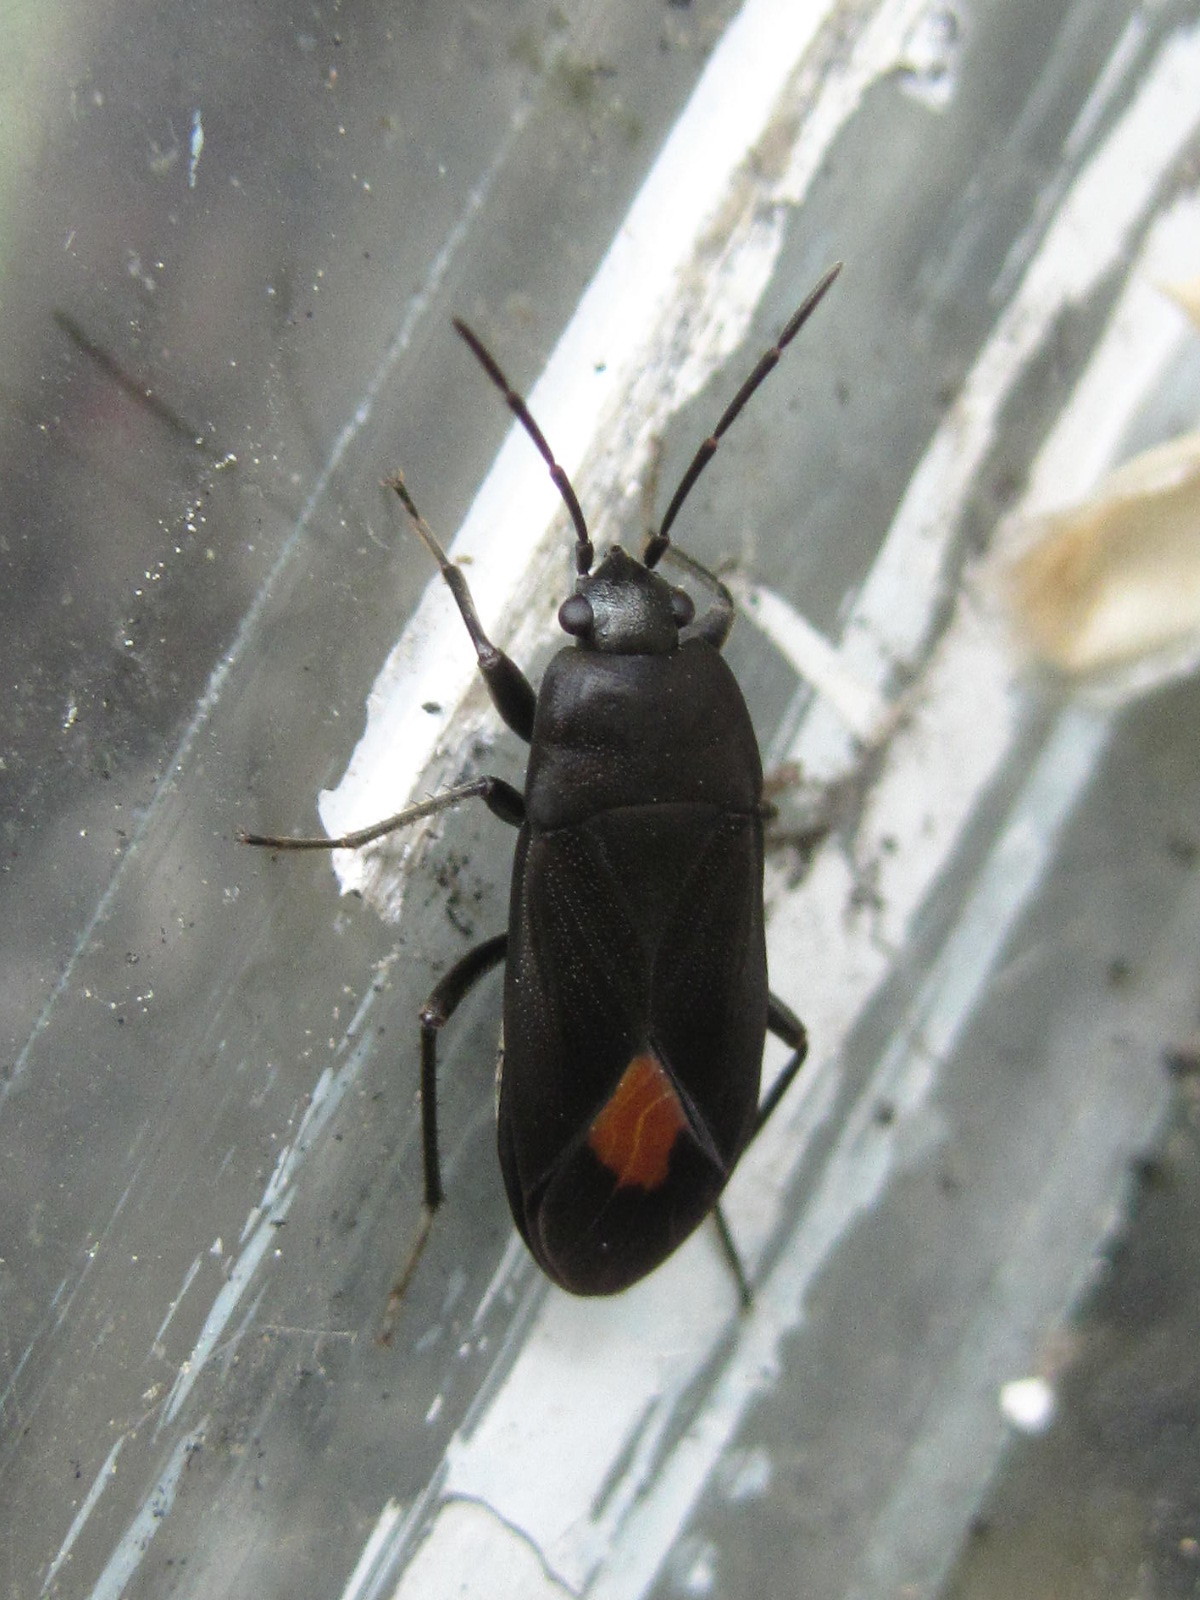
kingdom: Animalia
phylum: Arthropoda
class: Insecta
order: Hemiptera
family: Rhyparochromidae
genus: Aphanus
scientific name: Aphanus rolandri
